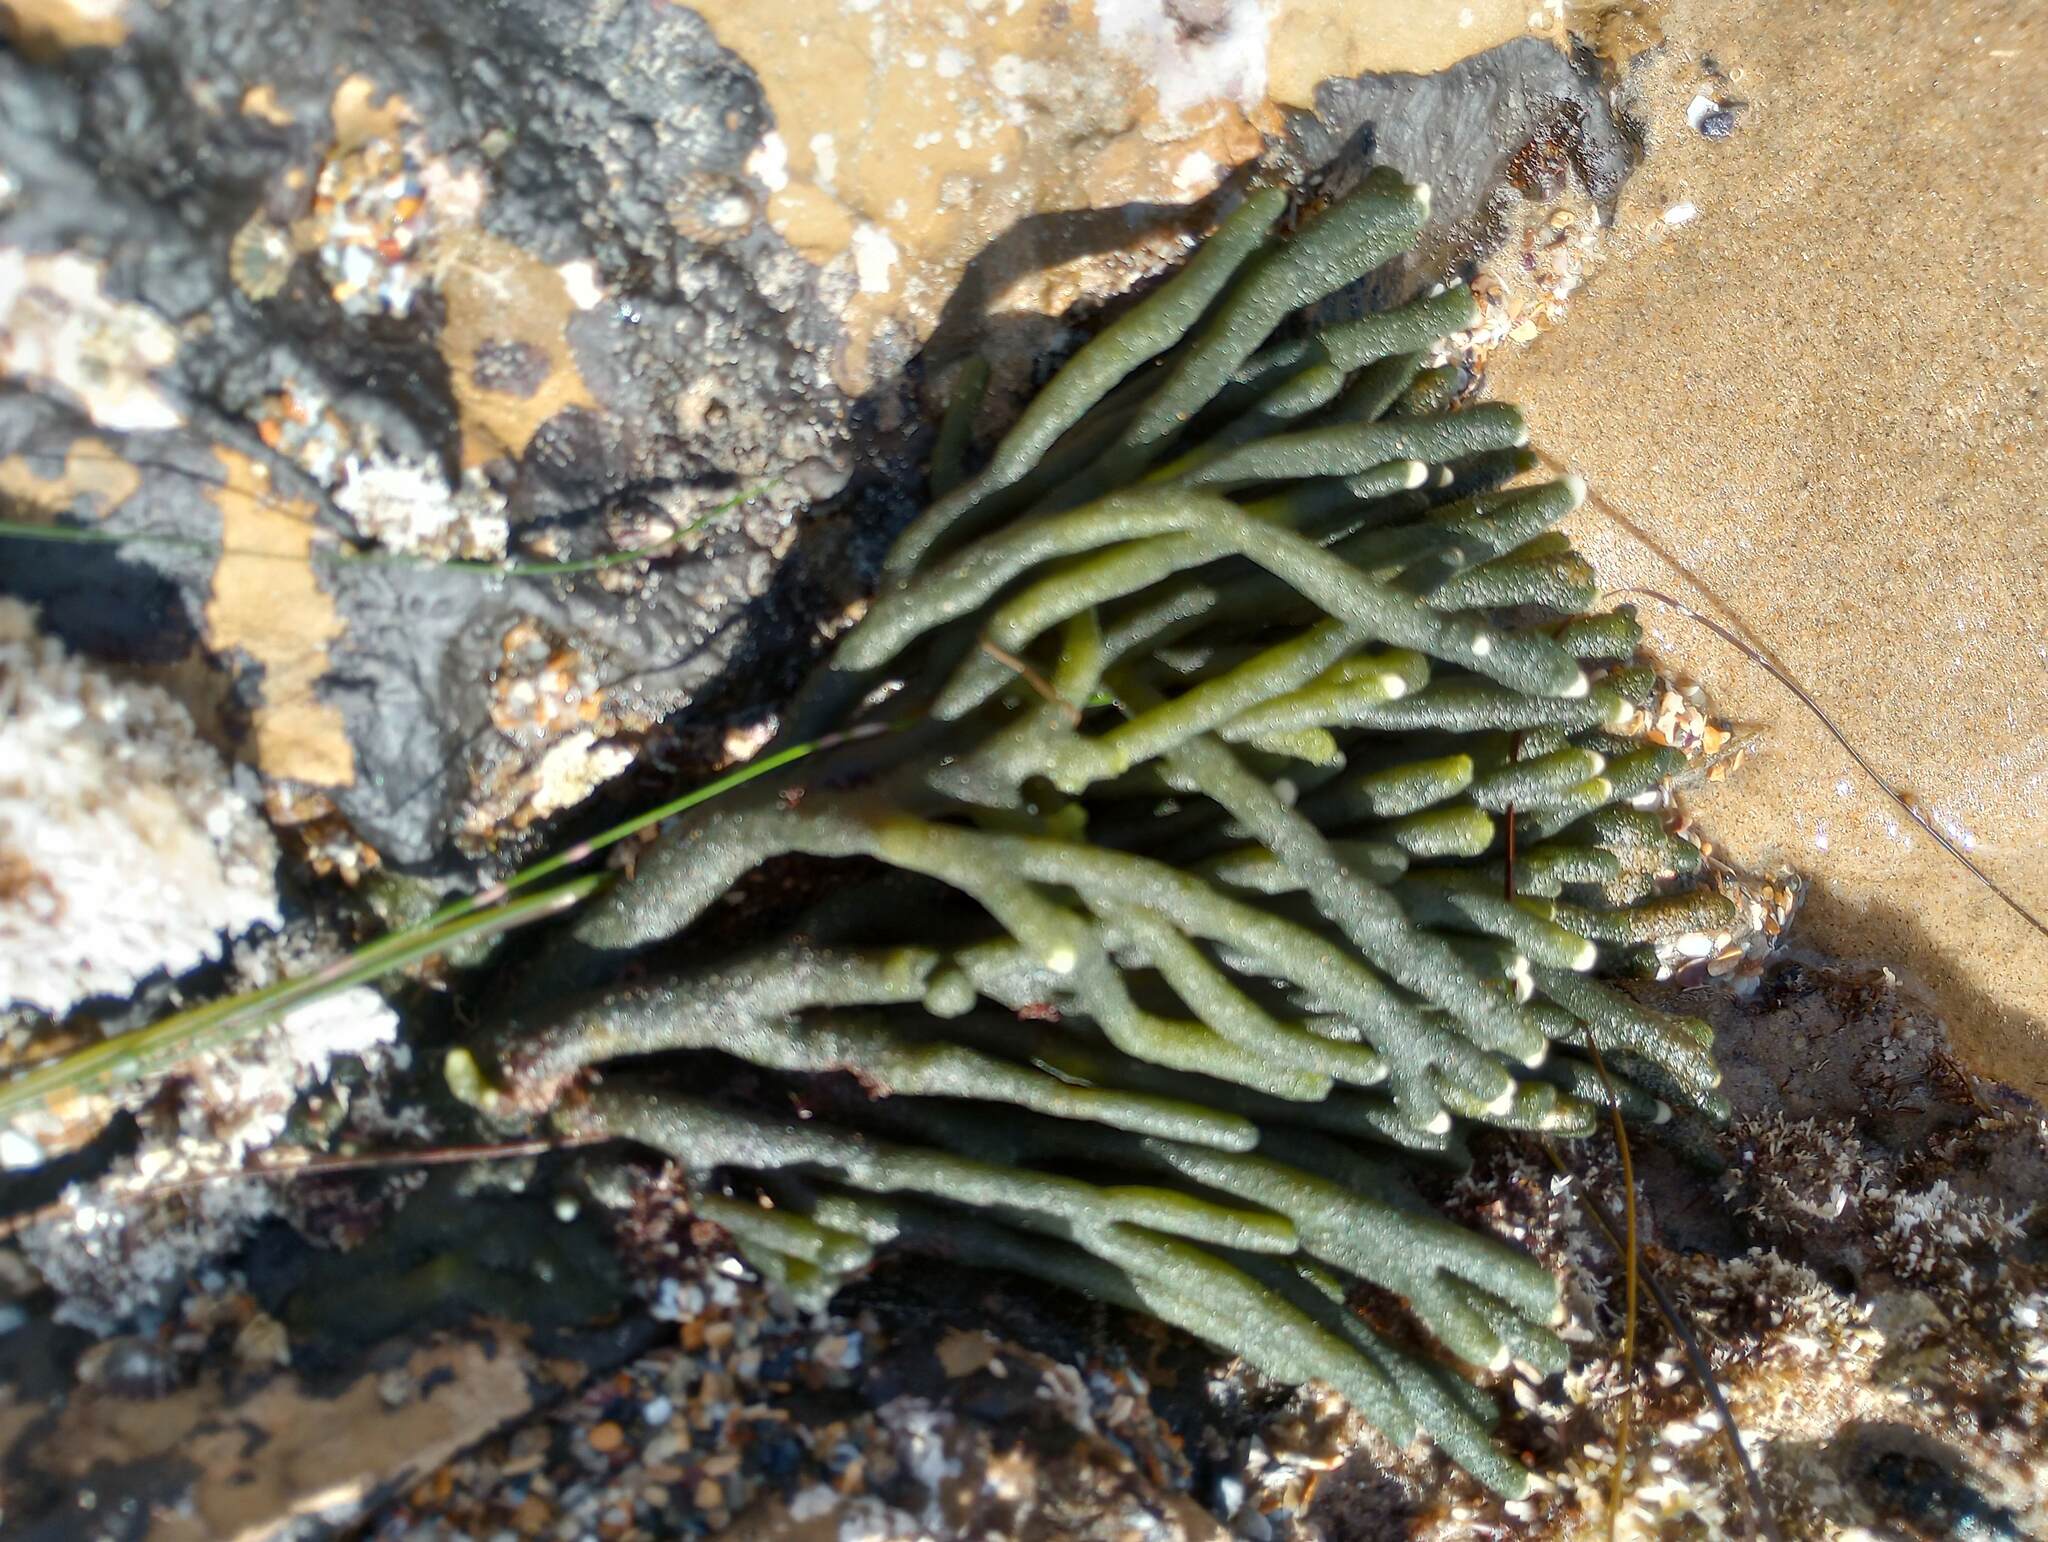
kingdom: Plantae
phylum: Chlorophyta
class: Ulvophyceae
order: Bryopsidales
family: Codiaceae
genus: Codium
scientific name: Codium fragile
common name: Dead man's fingers
